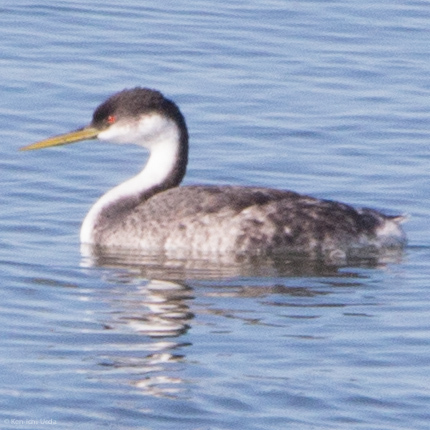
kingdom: Animalia
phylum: Chordata
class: Aves
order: Podicipediformes
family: Podicipedidae
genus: Aechmophorus
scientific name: Aechmophorus occidentalis
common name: Western grebe
